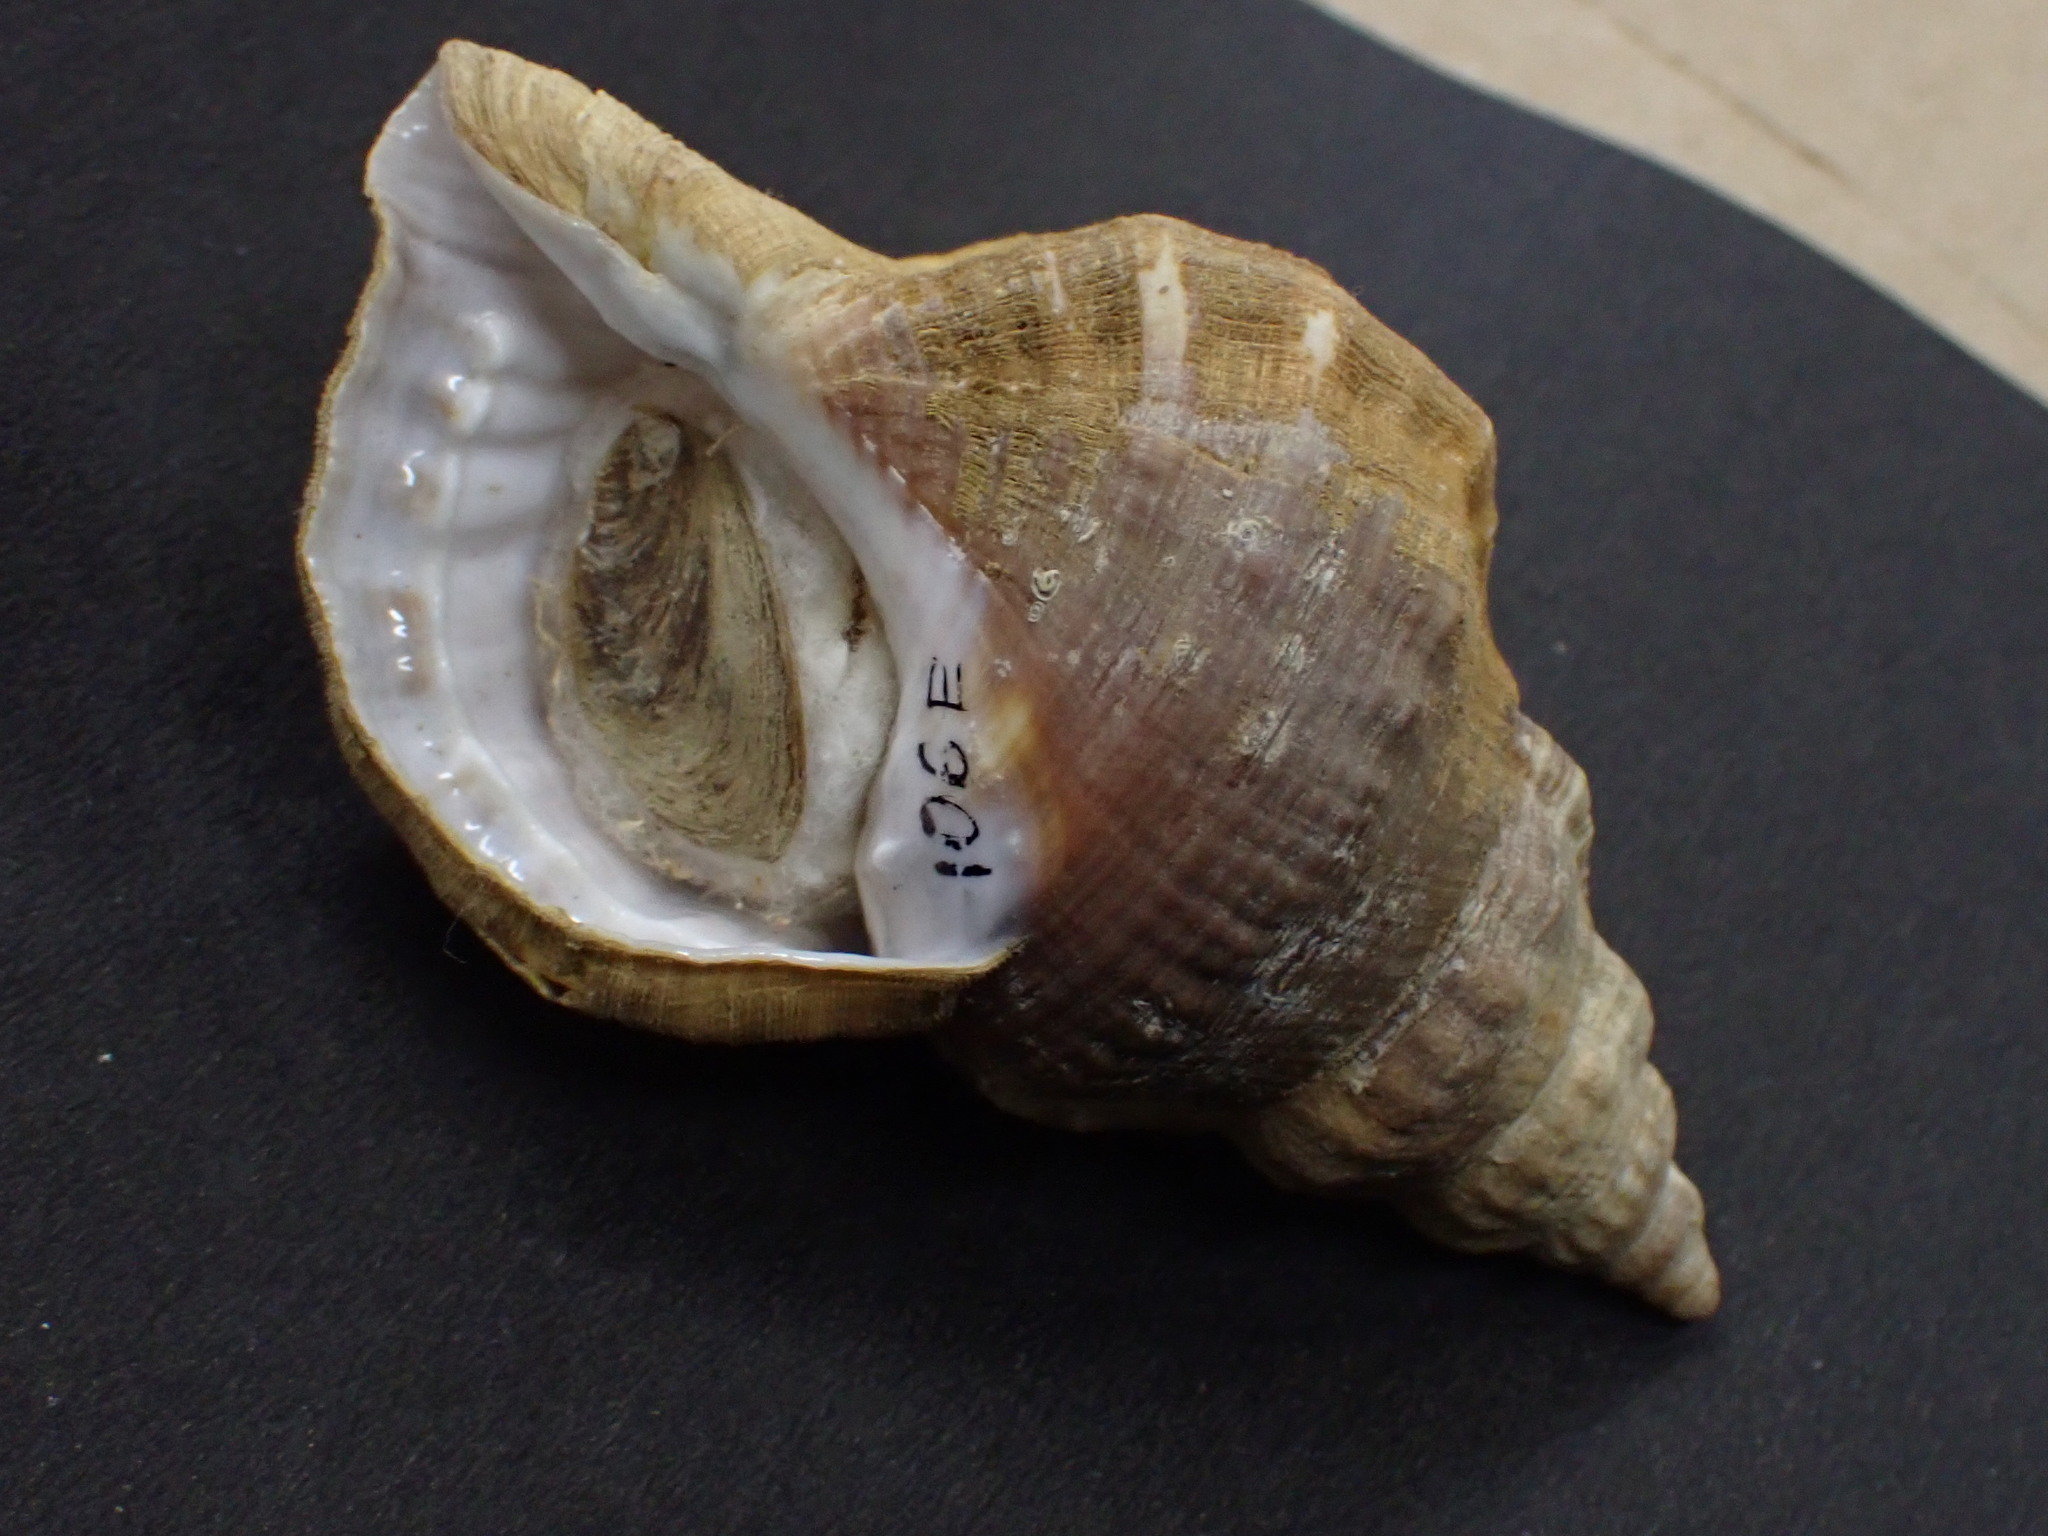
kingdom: Animalia
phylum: Mollusca
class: Gastropoda
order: Littorinimorpha
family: Ranellidae
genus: Ranella
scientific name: Ranella australasia
